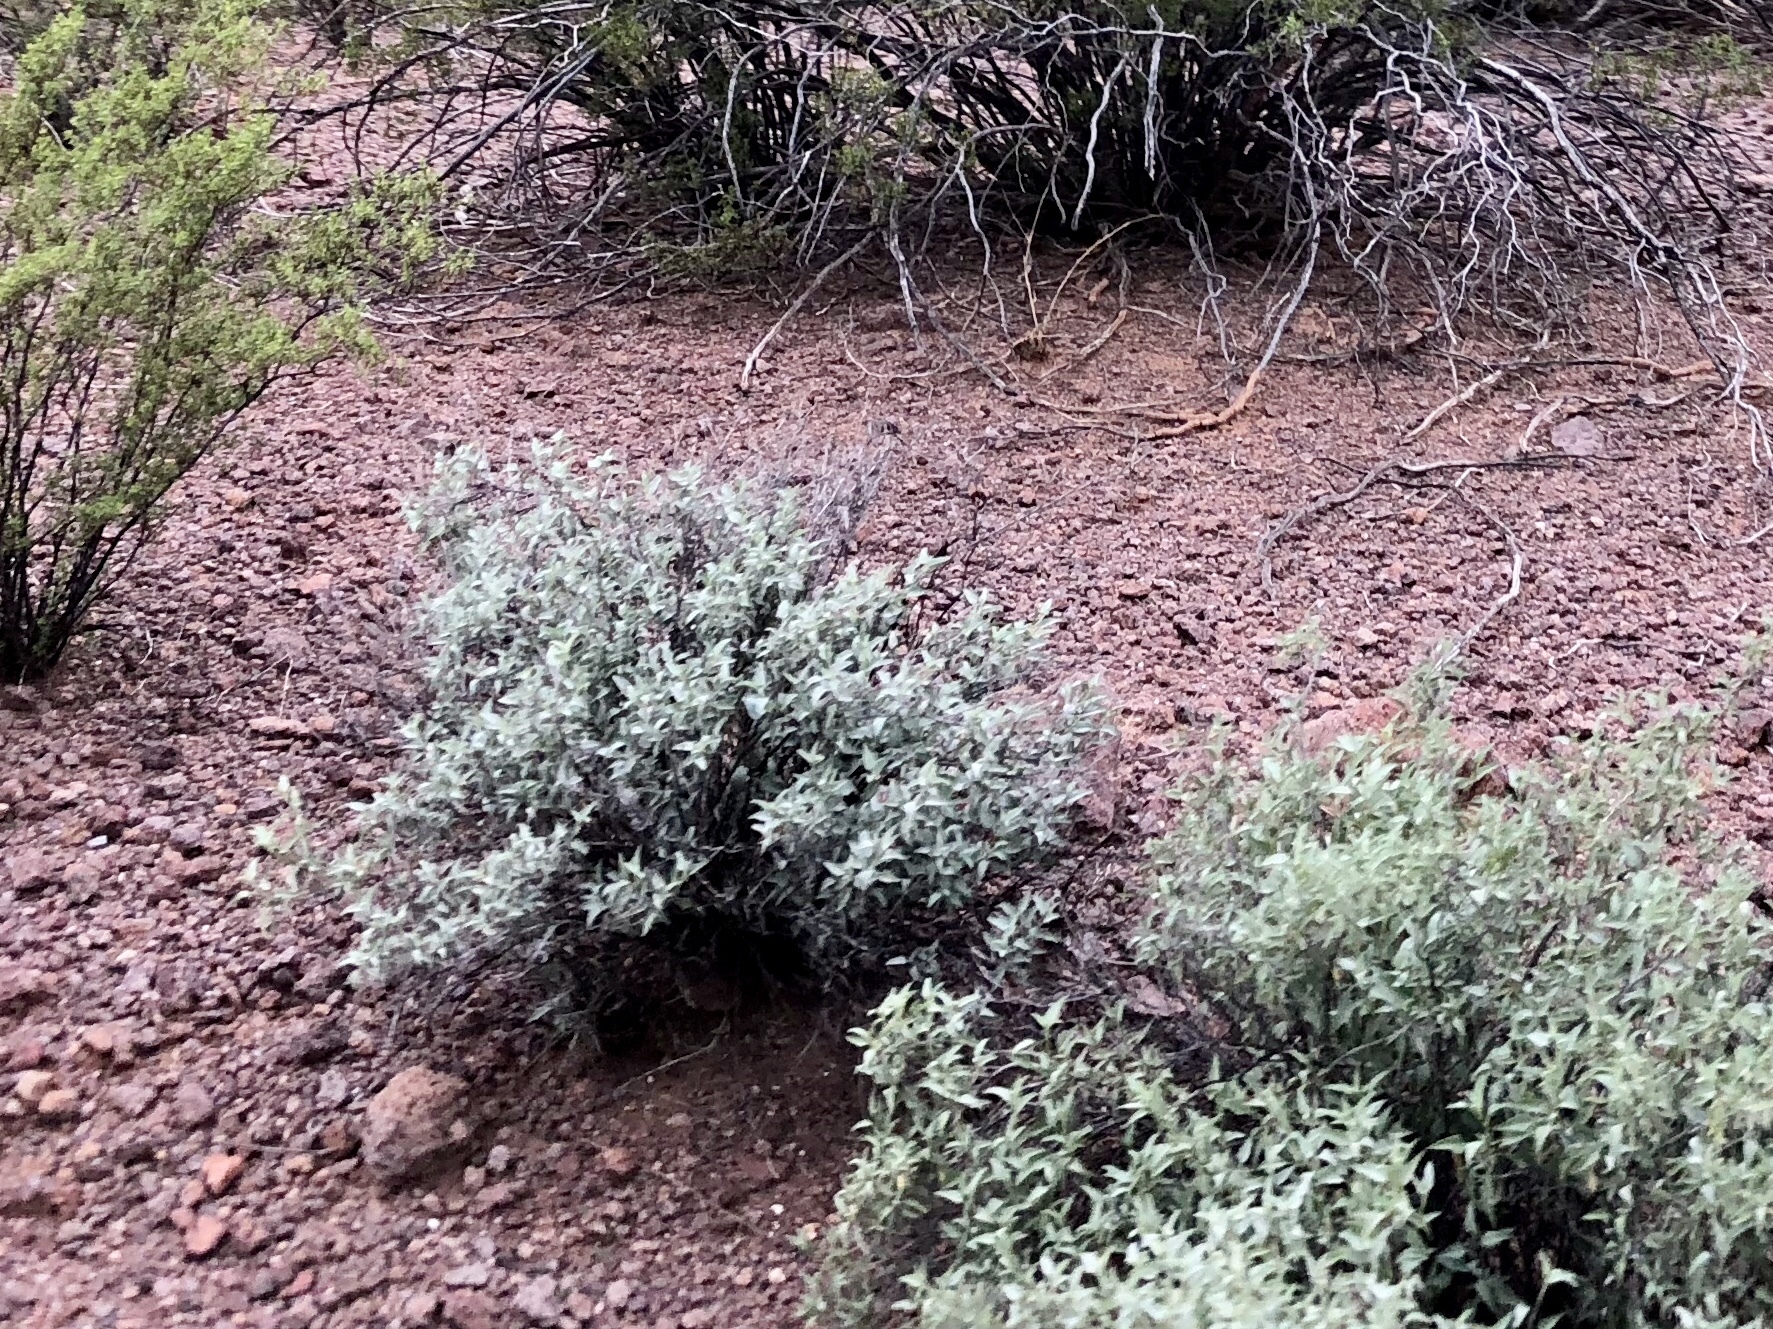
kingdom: Plantae
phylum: Tracheophyta
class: Magnoliopsida
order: Asterales
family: Asteraceae
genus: Encelia
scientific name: Encelia farinosa
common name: Brittlebush
